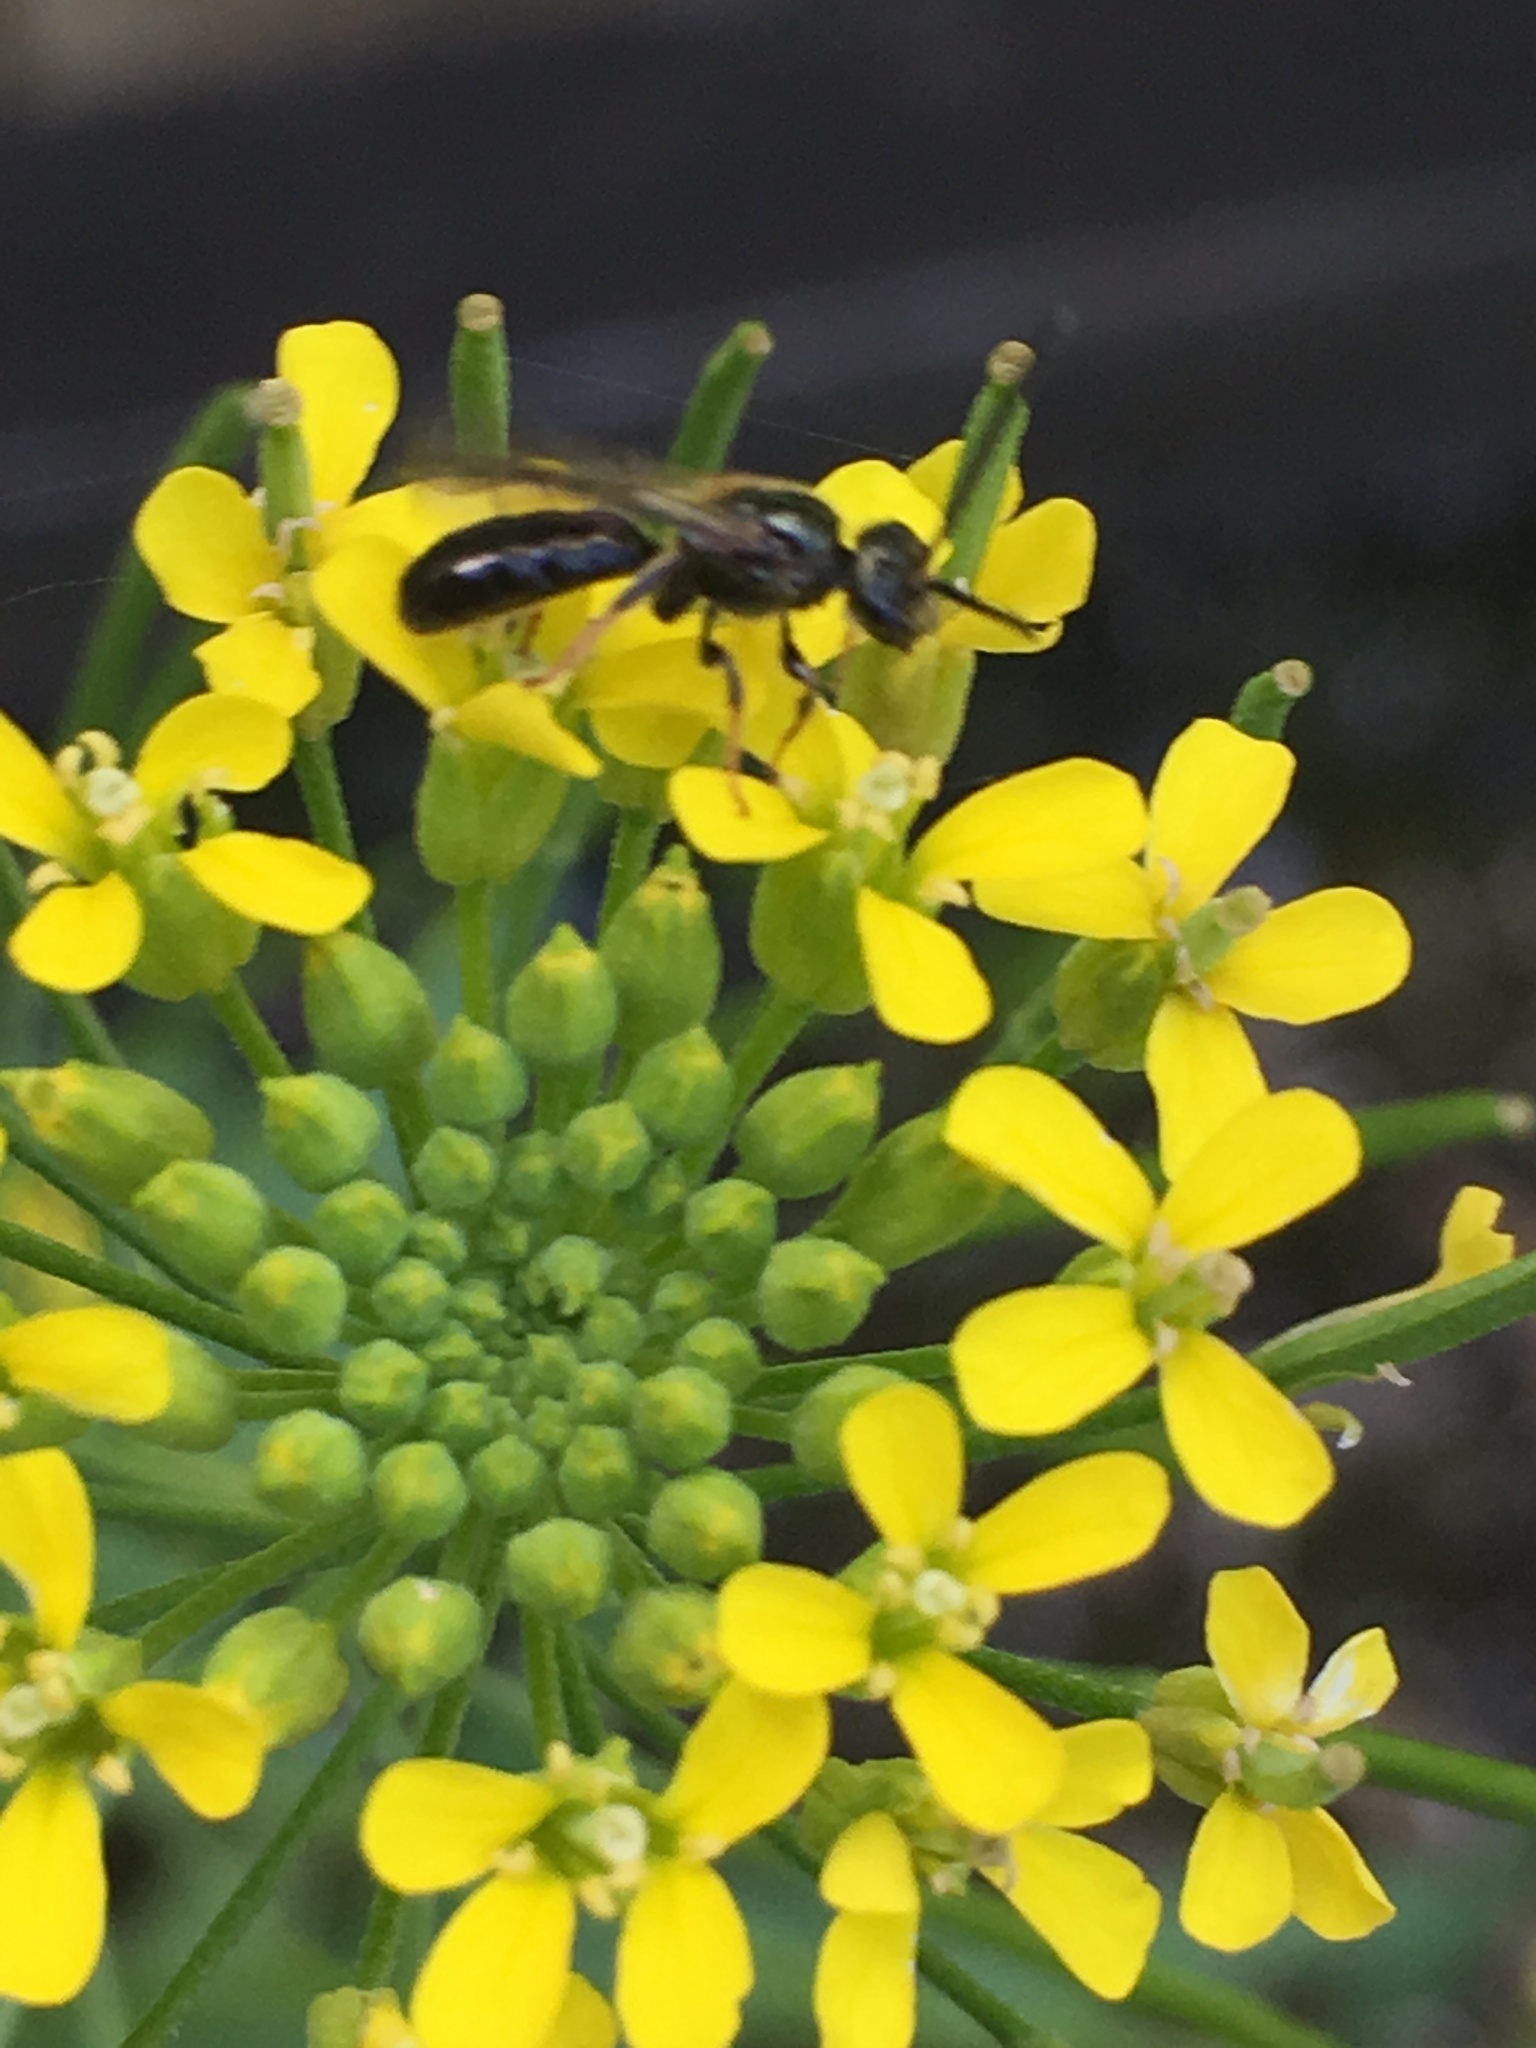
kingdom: Animalia
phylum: Arthropoda
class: Insecta
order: Hymenoptera
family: Halictidae
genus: Dialictus
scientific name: Dialictus
